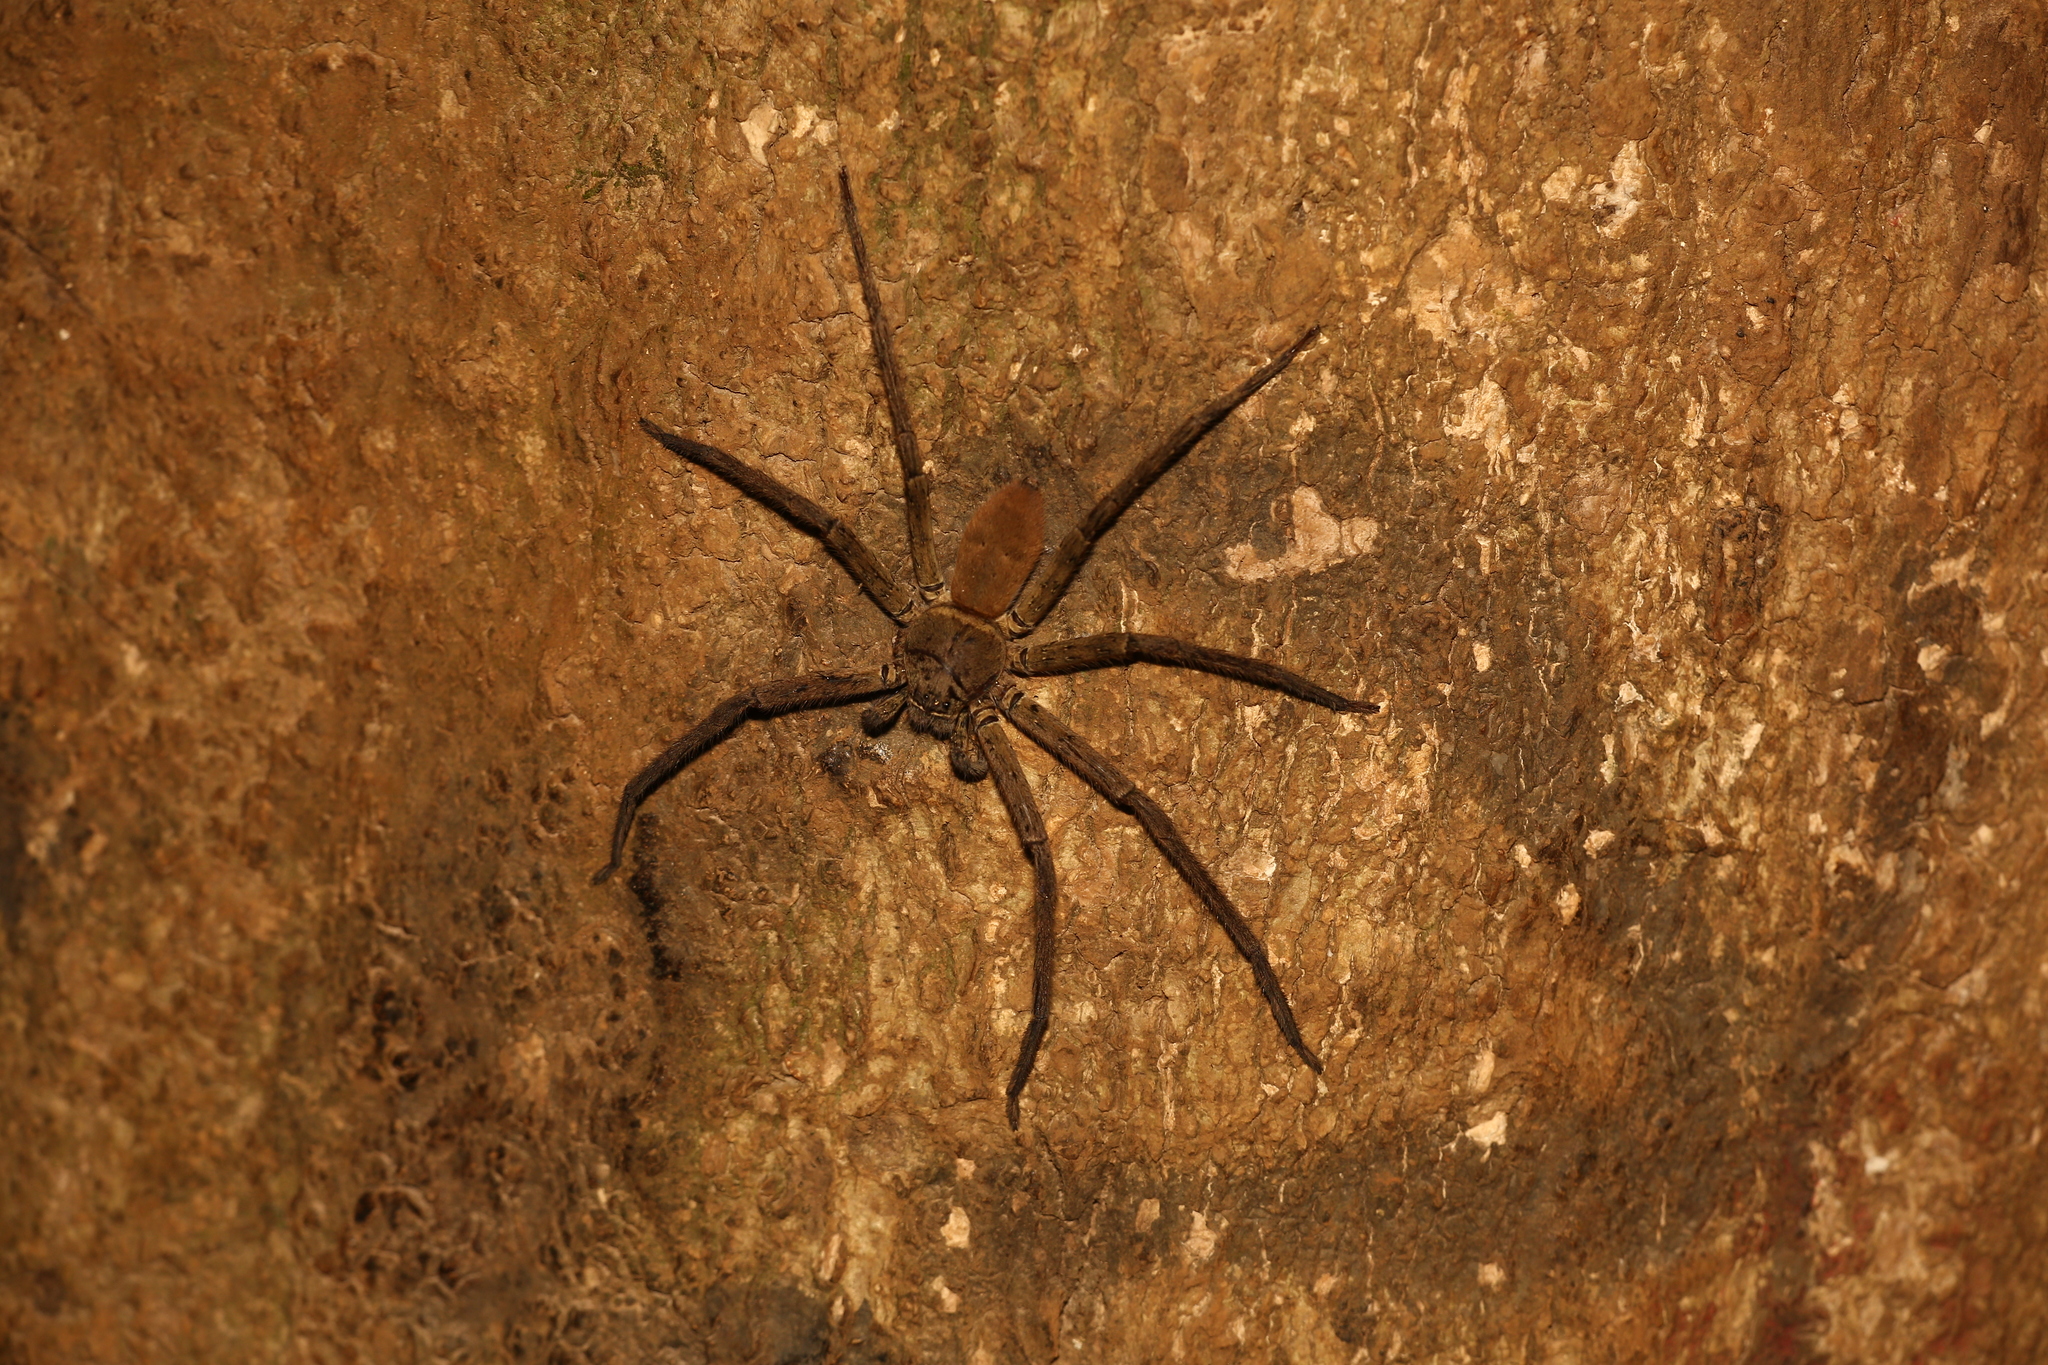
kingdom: Animalia
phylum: Arthropoda
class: Arachnida
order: Araneae
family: Sparassidae
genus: Heteropoda
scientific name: Heteropoda venatoria
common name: Huntsman spider
